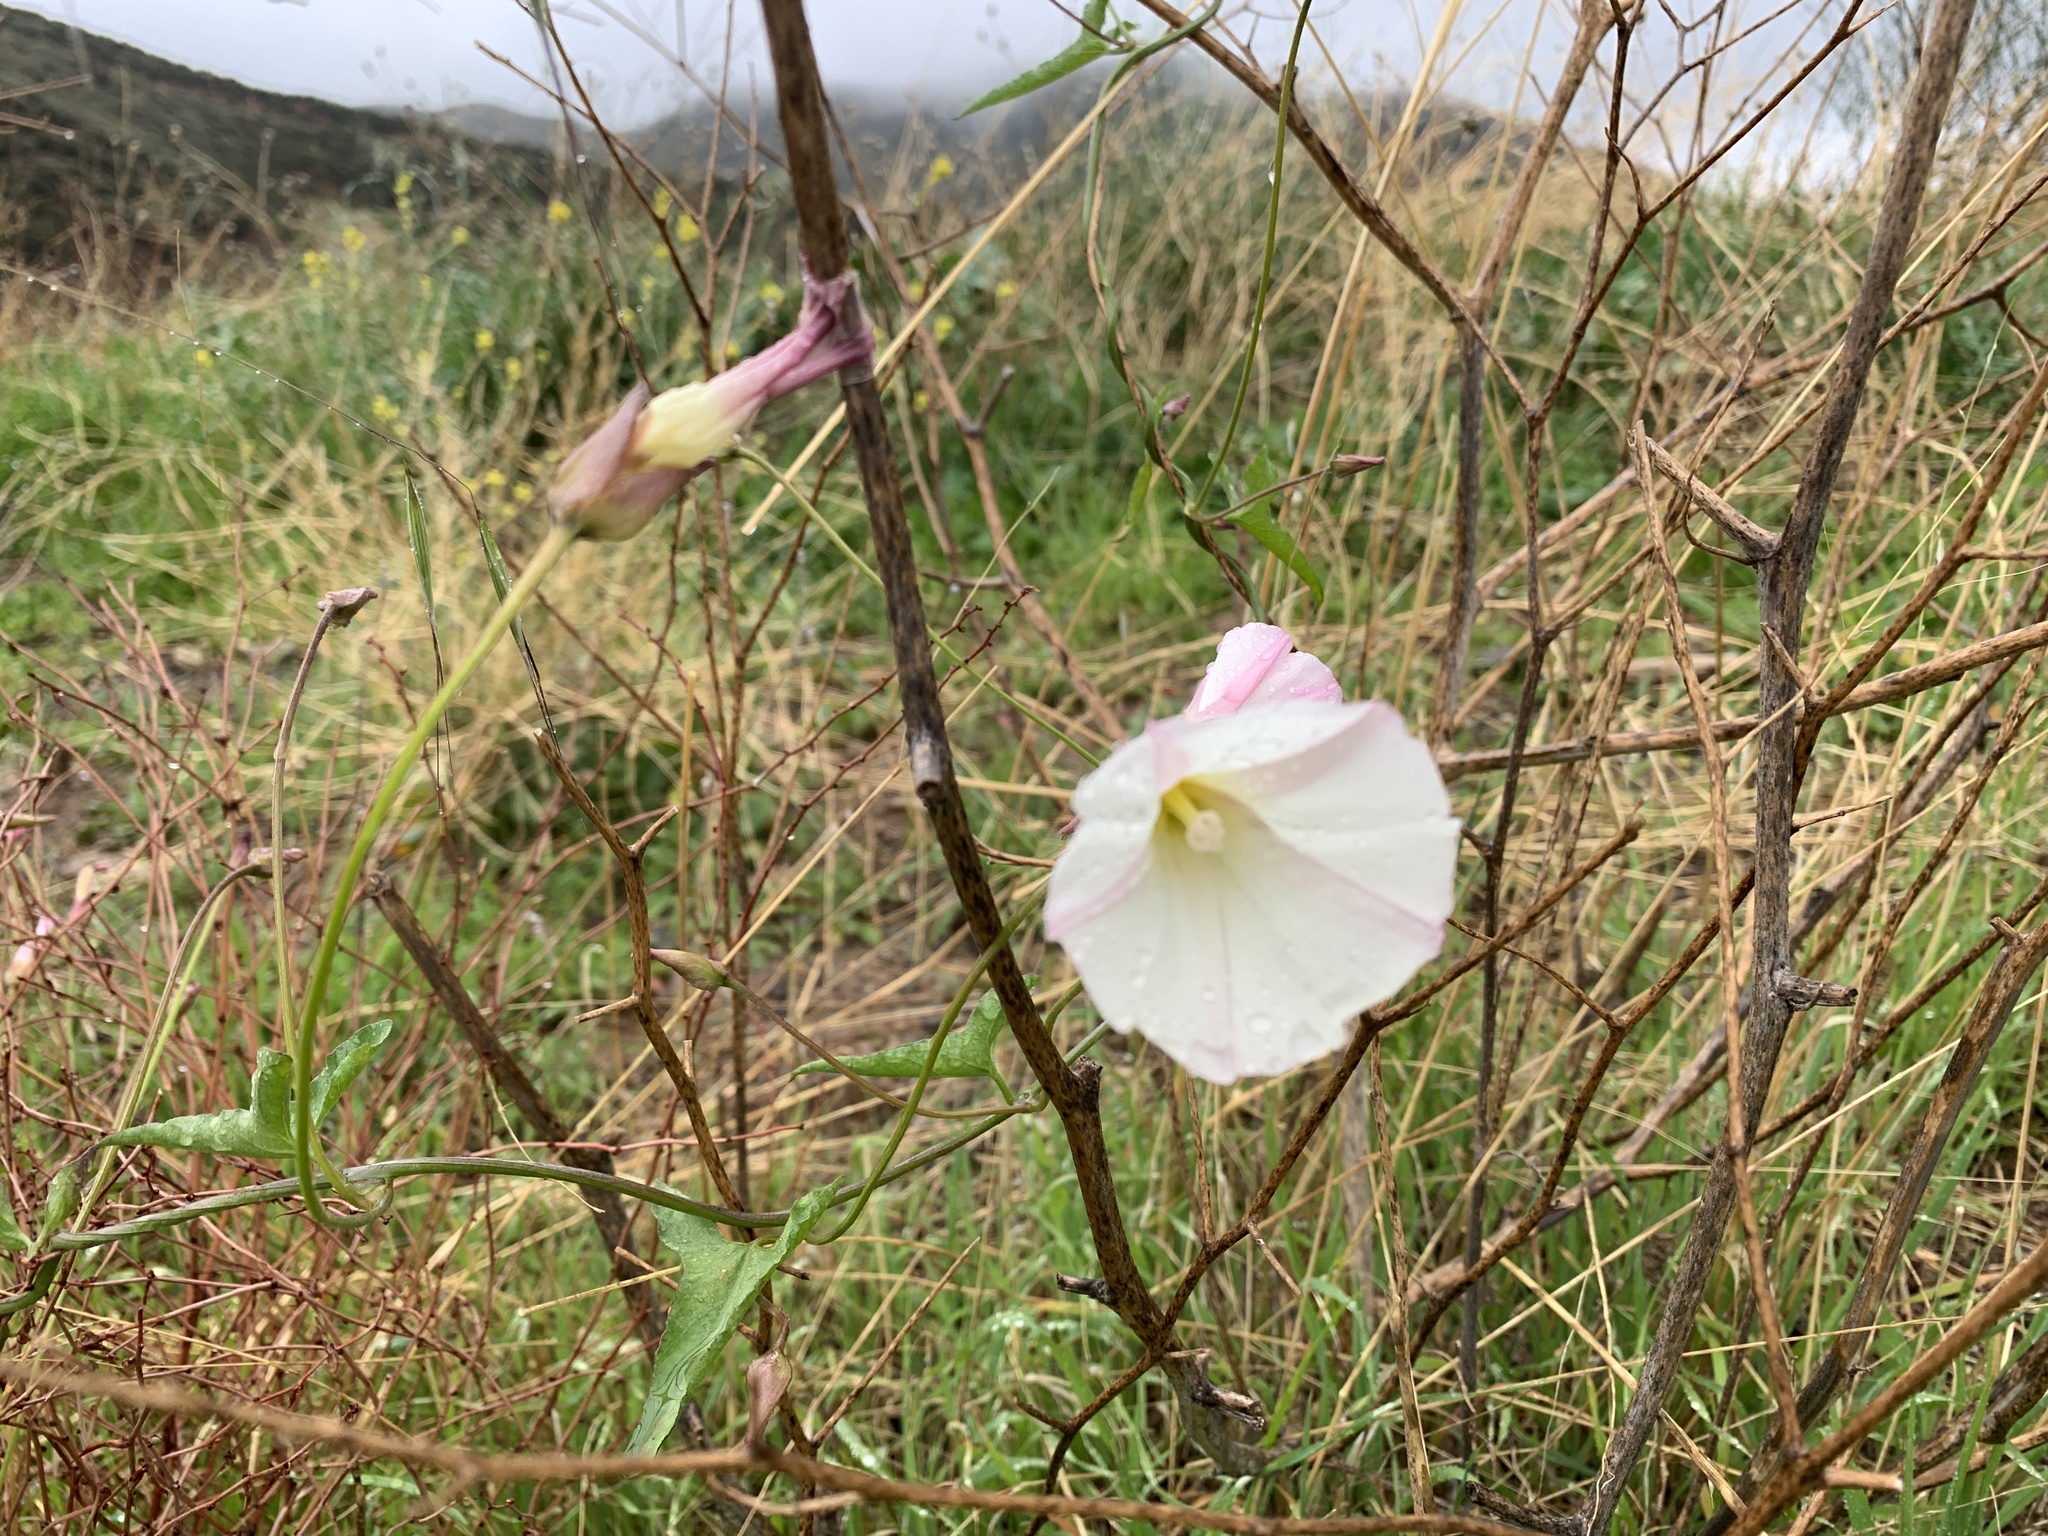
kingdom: Plantae
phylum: Tracheophyta
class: Magnoliopsida
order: Solanales
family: Convolvulaceae
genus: Calystegia
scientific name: Calystegia macrostegia
